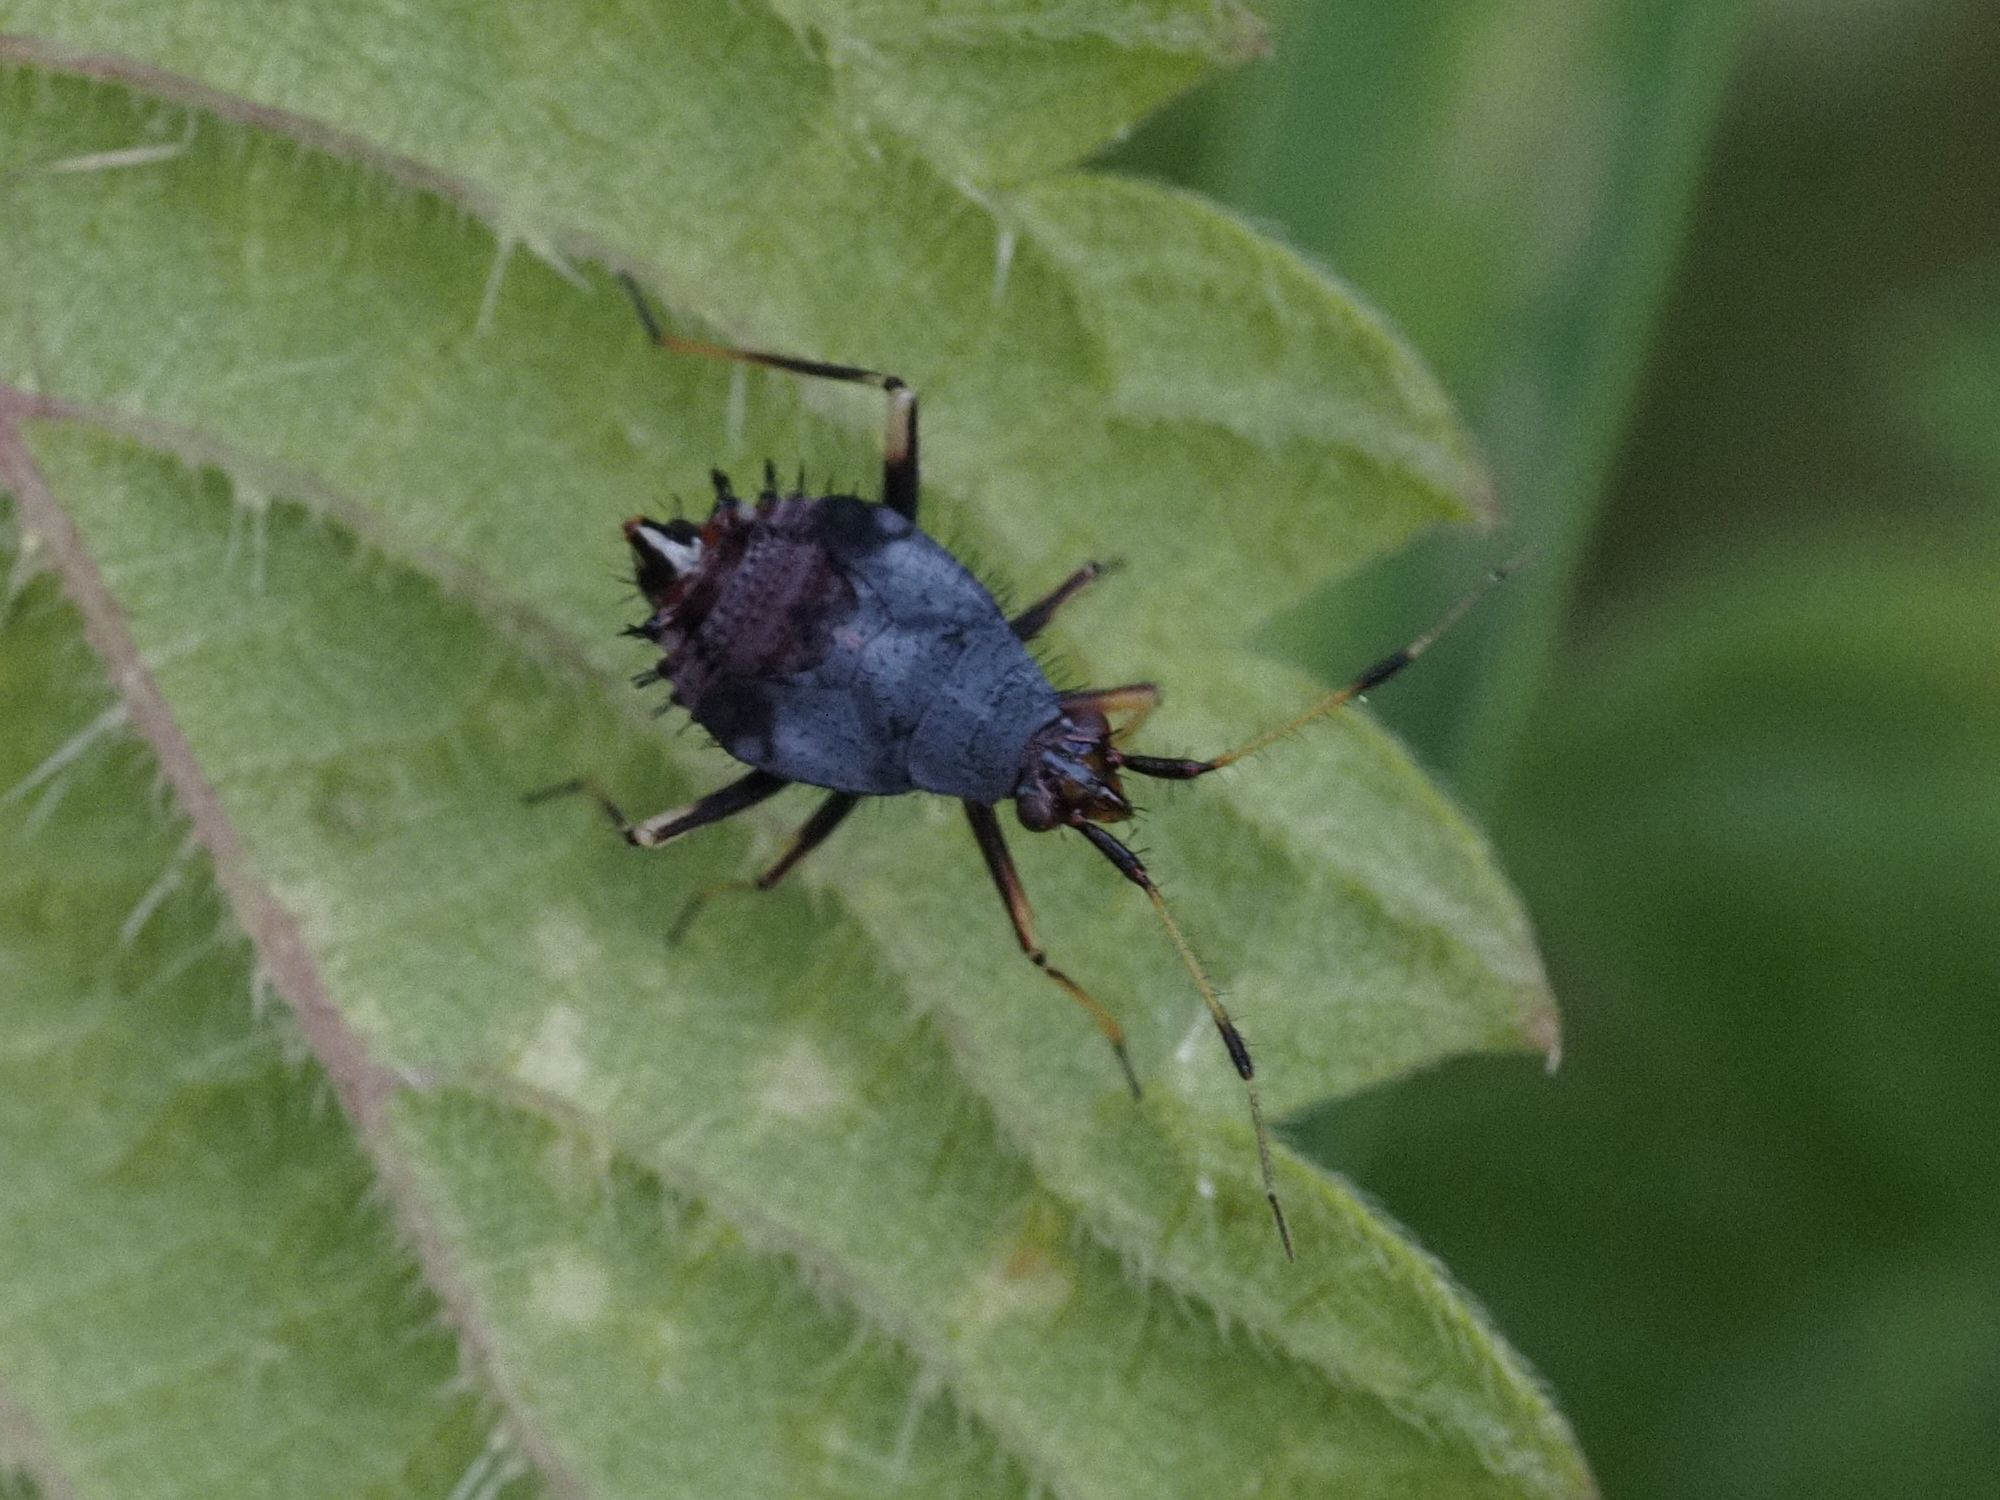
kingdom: Animalia
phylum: Arthropoda
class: Insecta
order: Hemiptera
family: Miridae
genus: Deraeocoris
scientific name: Deraeocoris ruber
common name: Plant bug
